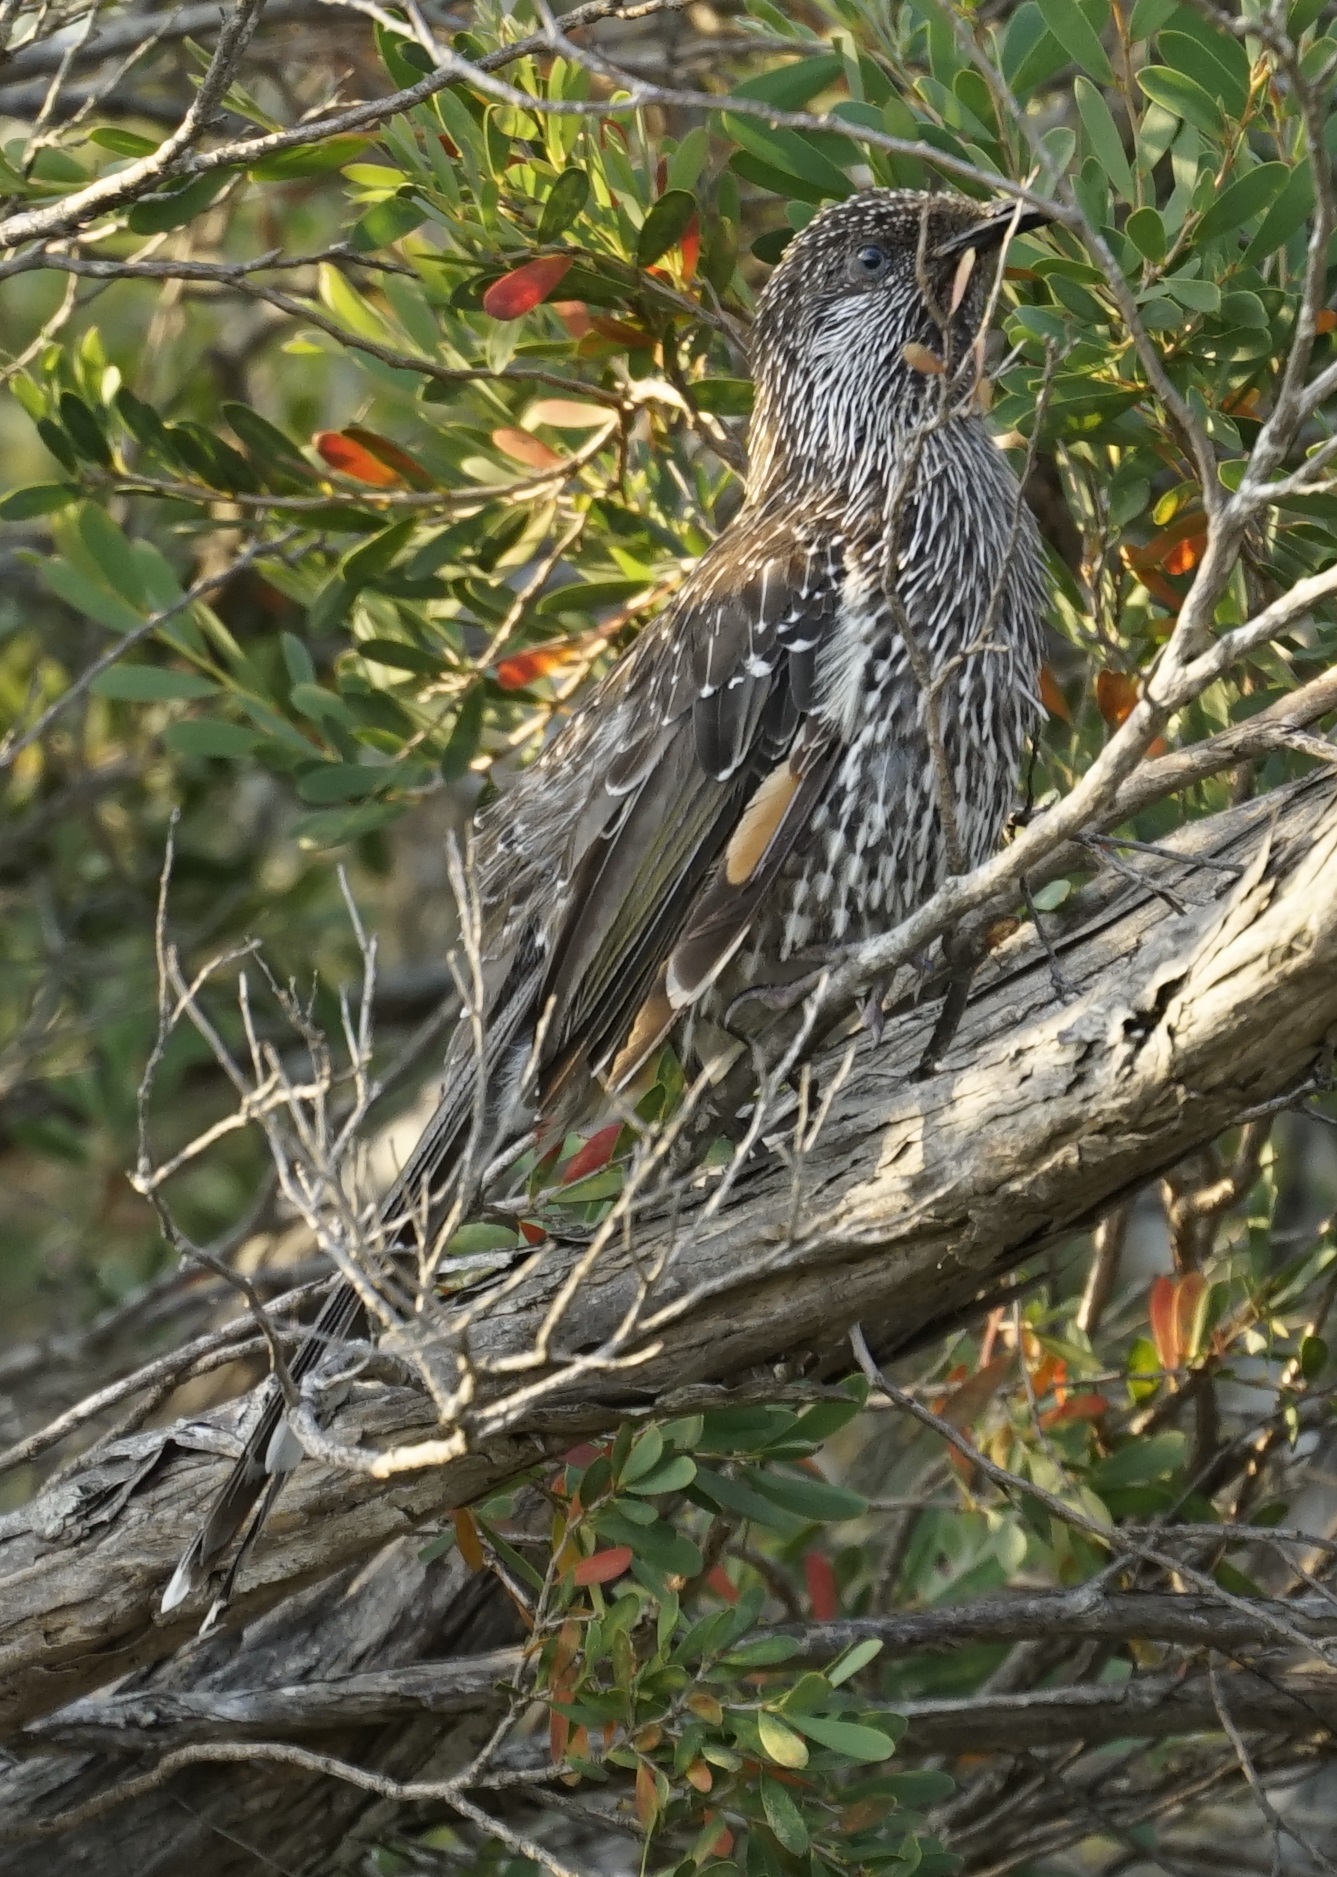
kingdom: Animalia
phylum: Chordata
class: Aves
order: Passeriformes
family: Meliphagidae
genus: Anthochaera
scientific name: Anthochaera chrysoptera
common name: Little wattlebird
